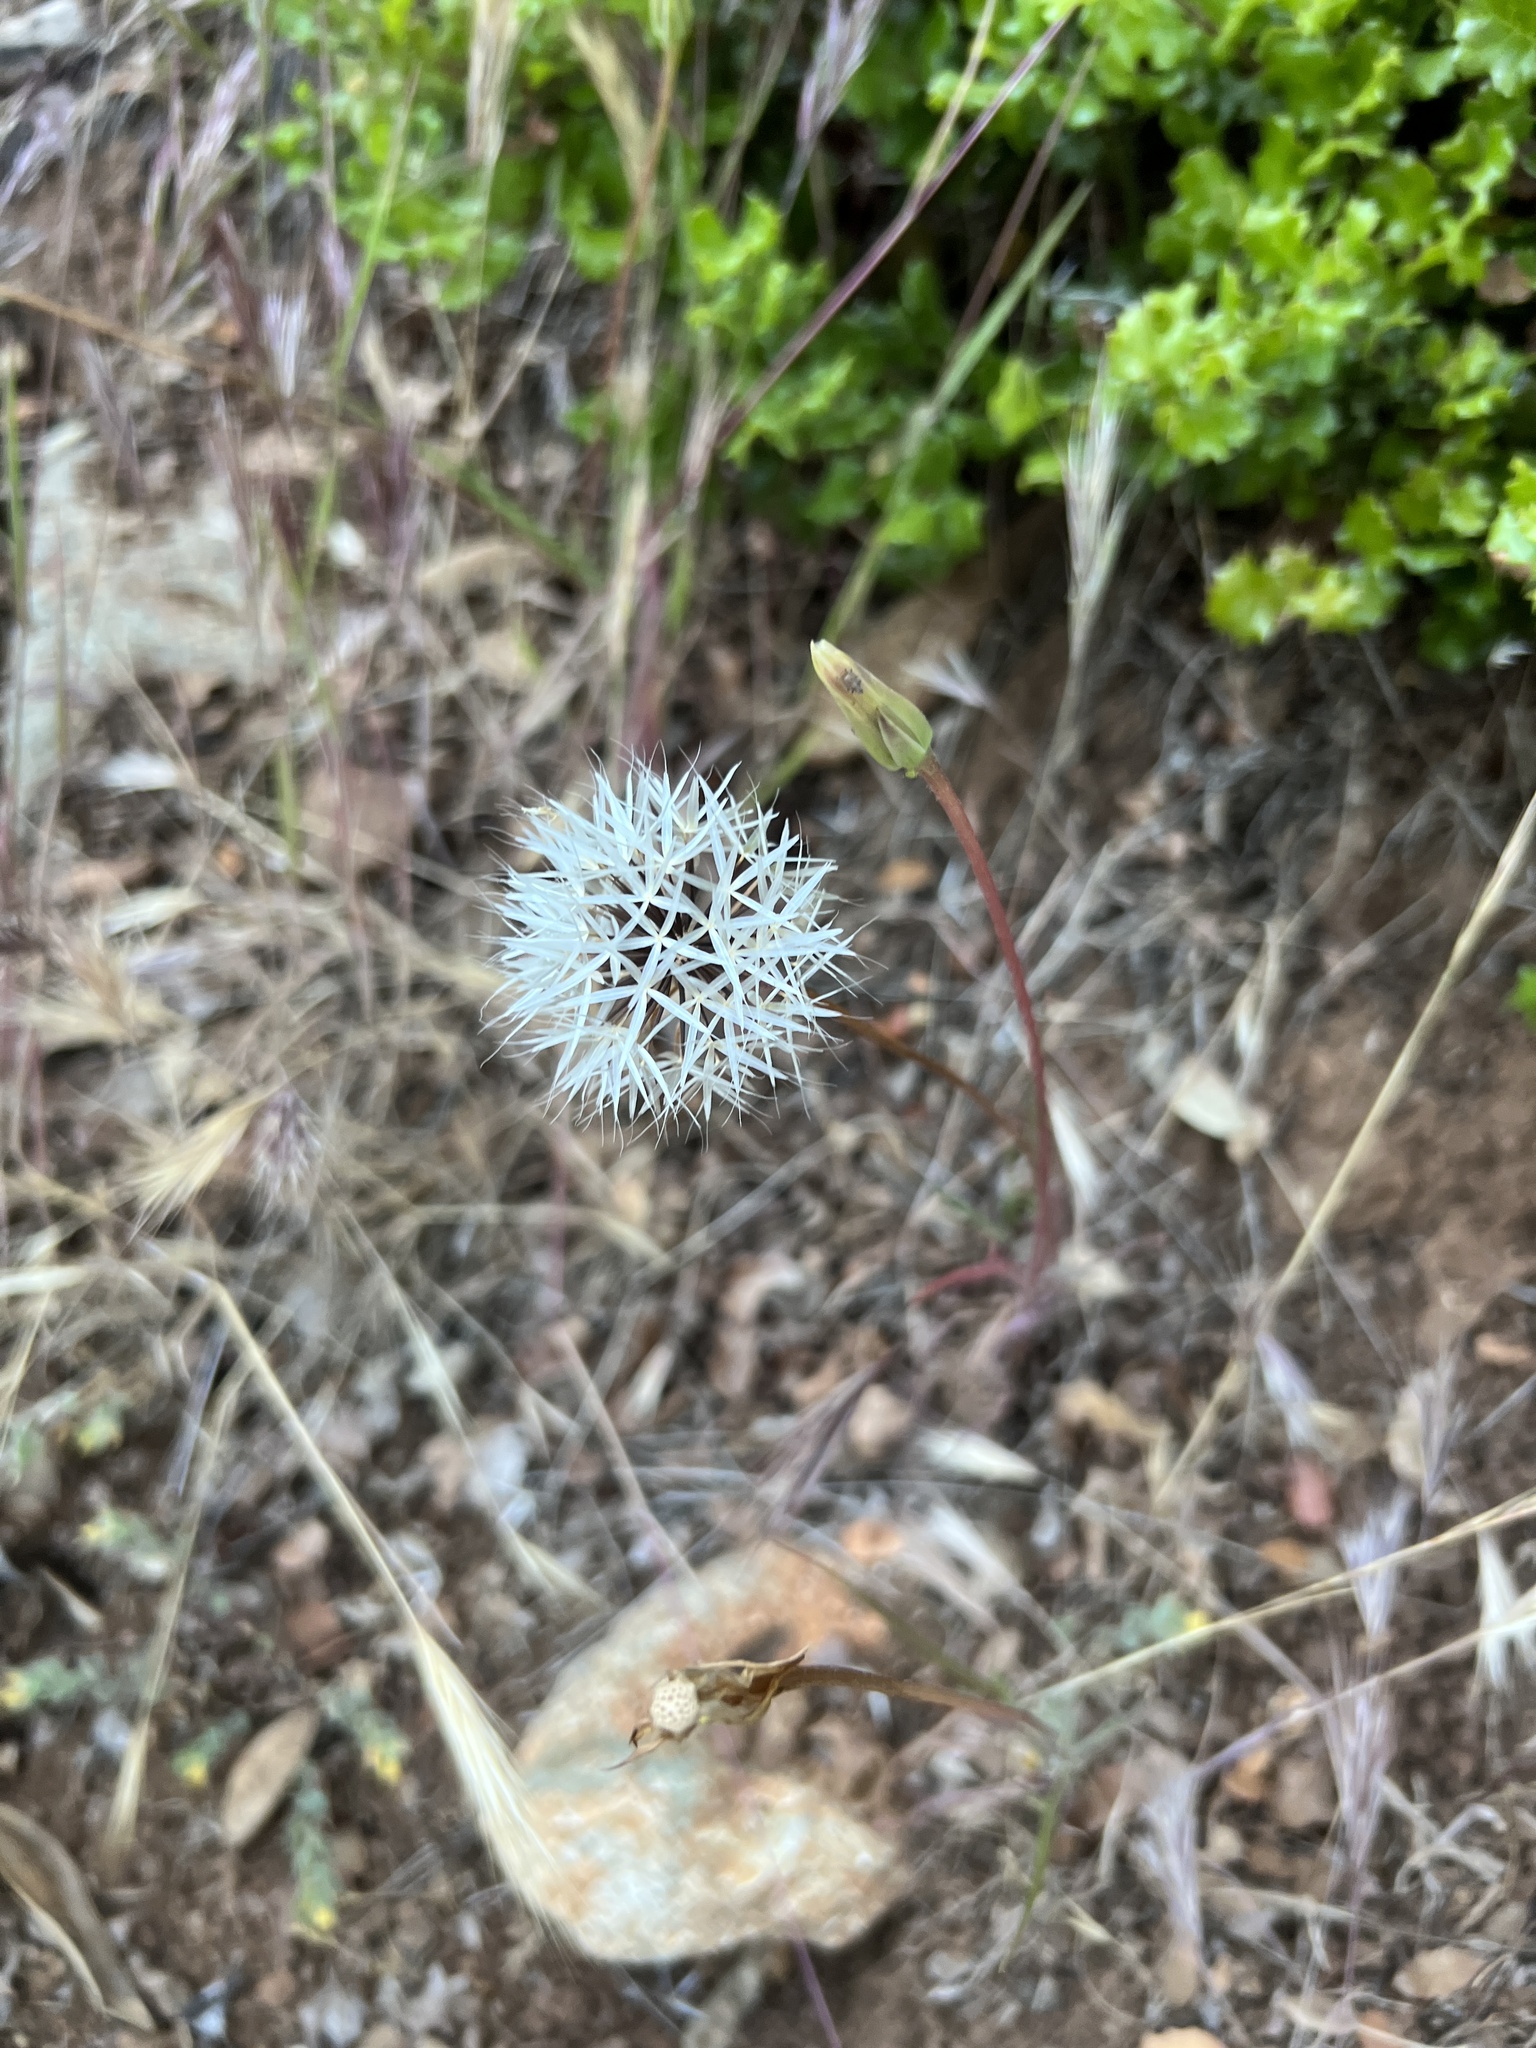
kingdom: Plantae
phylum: Tracheophyta
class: Magnoliopsida
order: Asterales
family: Asteraceae
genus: Microseris
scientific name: Microseris lindleyi
